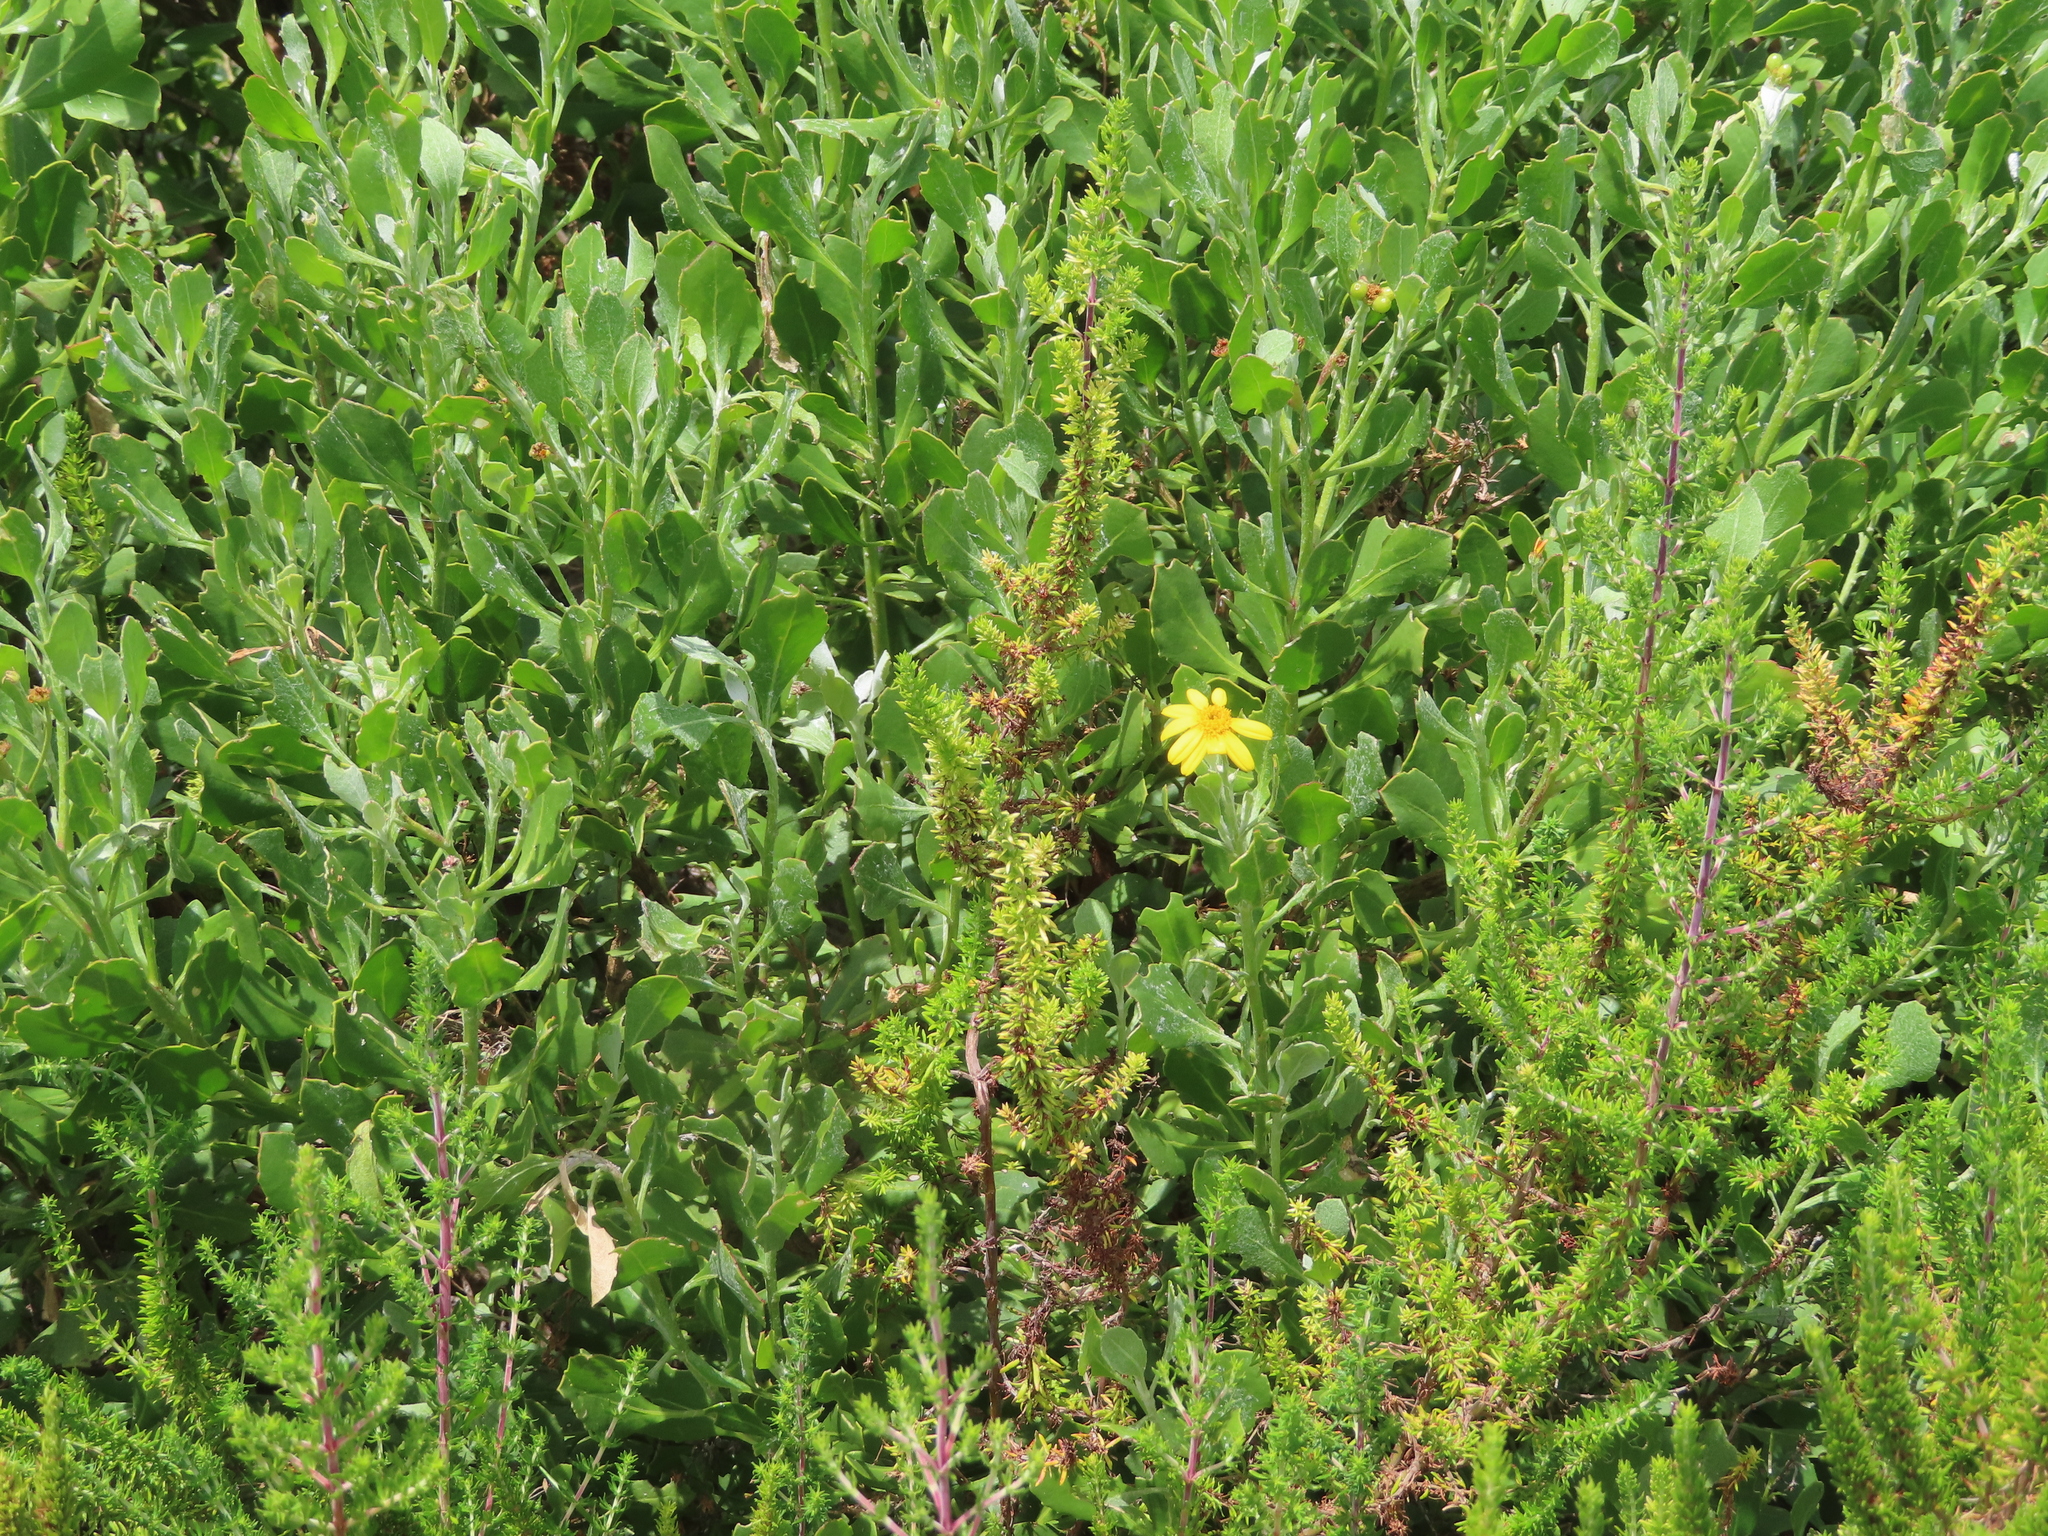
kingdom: Plantae
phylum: Tracheophyta
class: Magnoliopsida
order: Asterales
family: Asteraceae
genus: Osteospermum
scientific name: Osteospermum moniliferum
